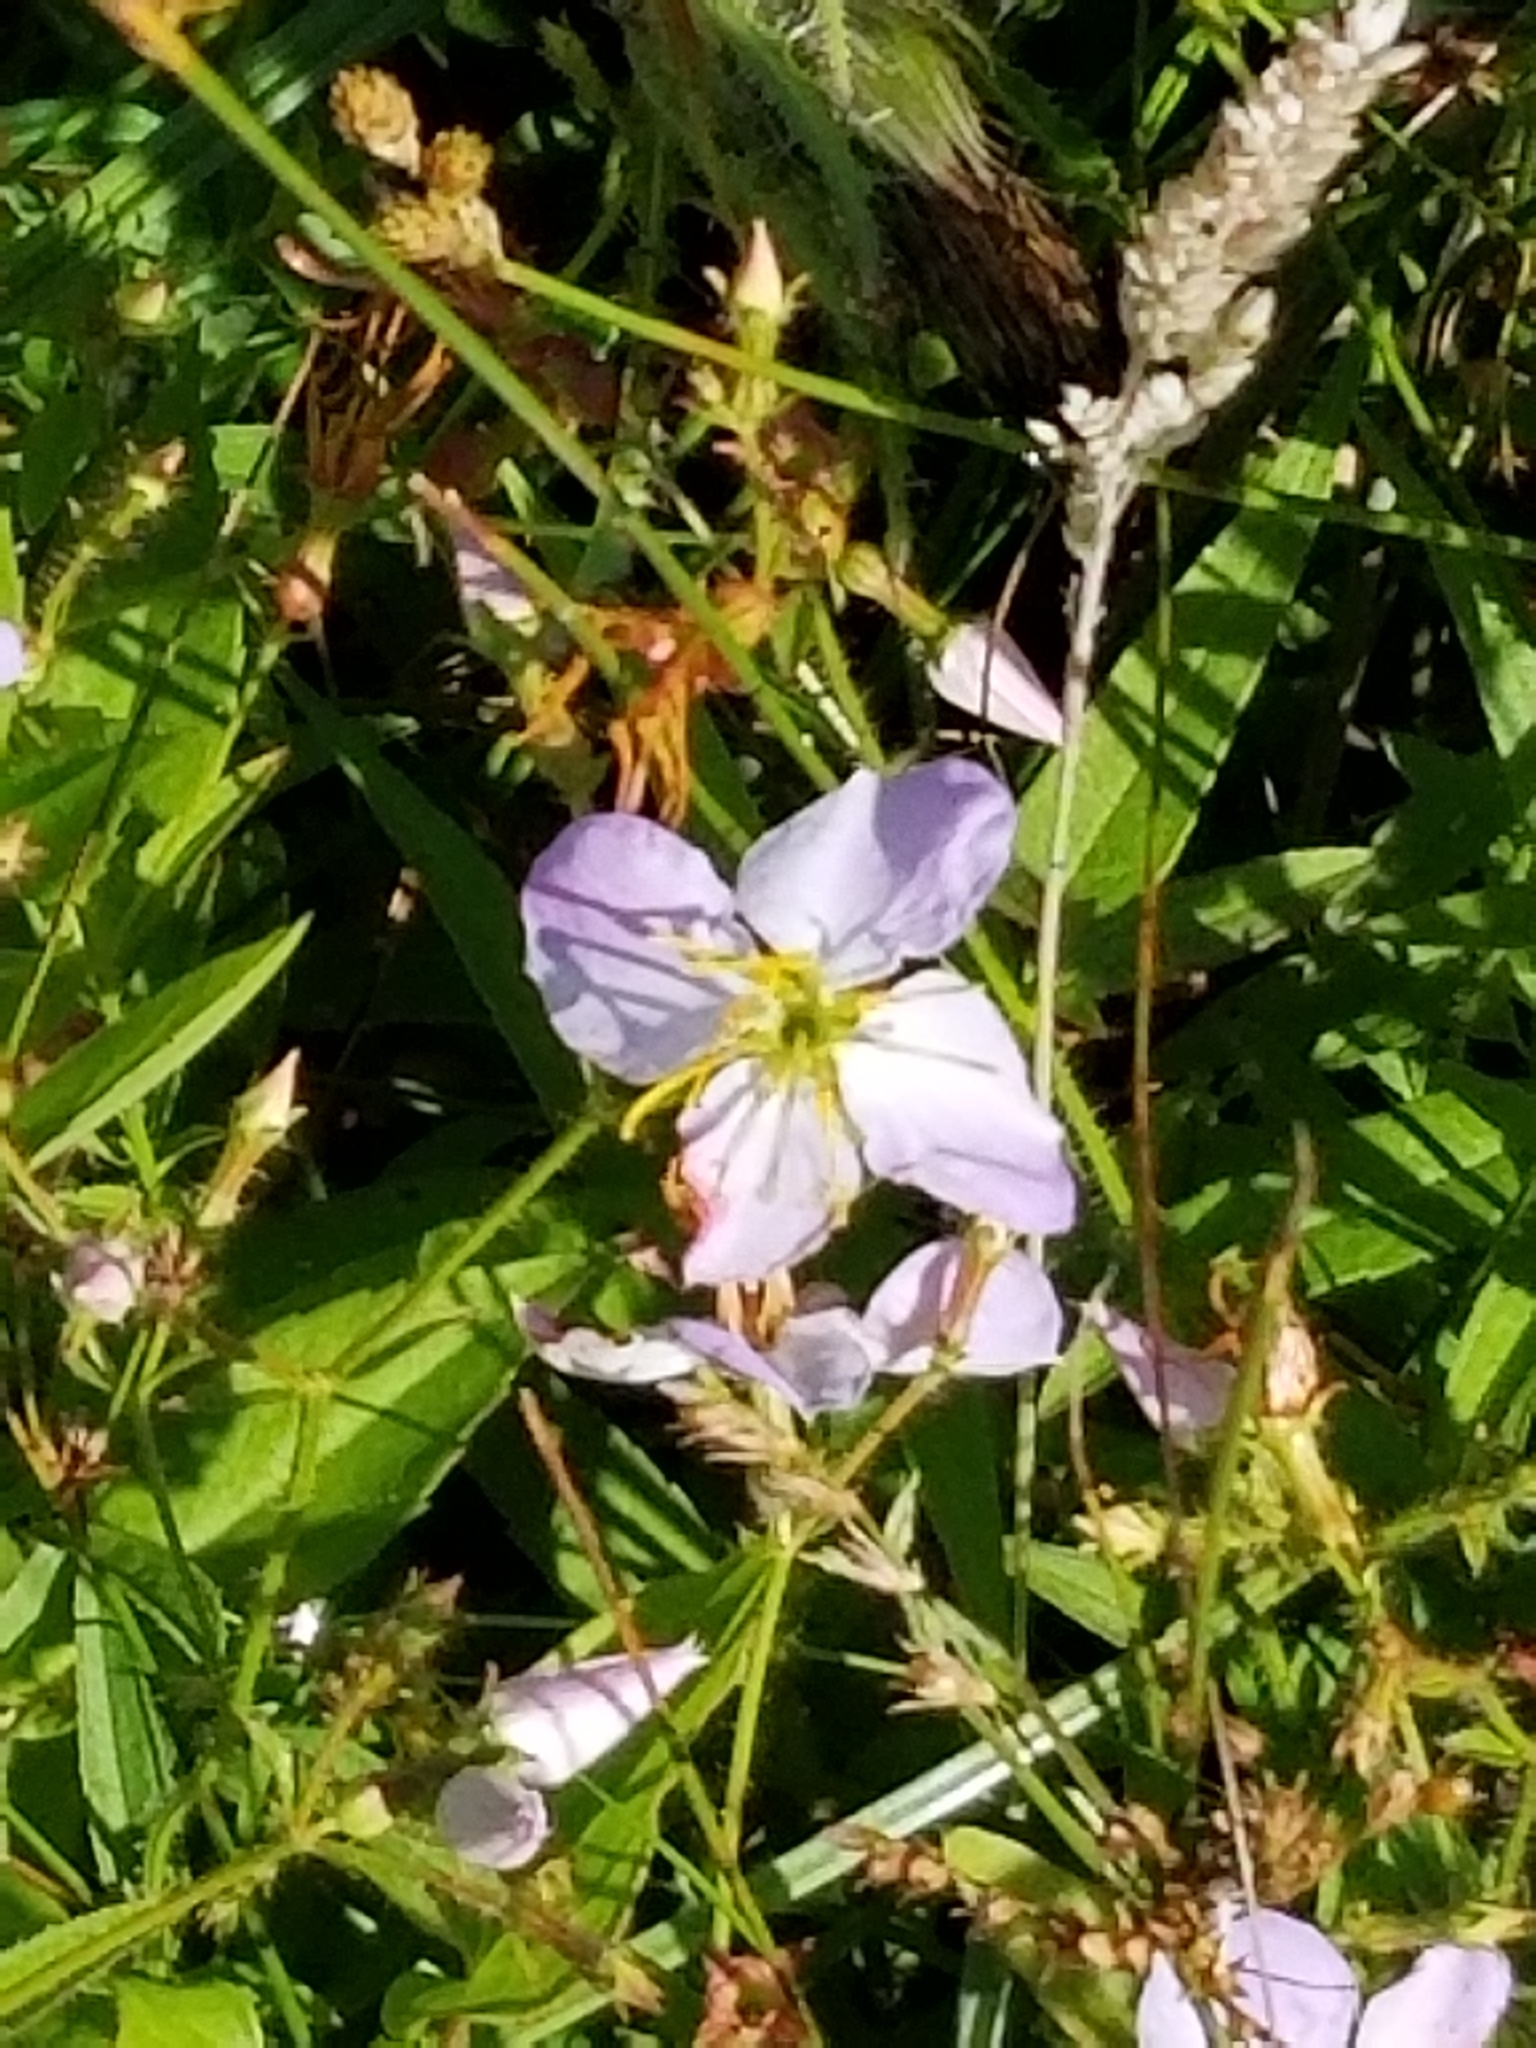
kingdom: Plantae
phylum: Tracheophyta
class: Magnoliopsida
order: Myrtales
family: Melastomataceae
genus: Rhexia
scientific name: Rhexia mariana
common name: Dull meadow-pitcher
